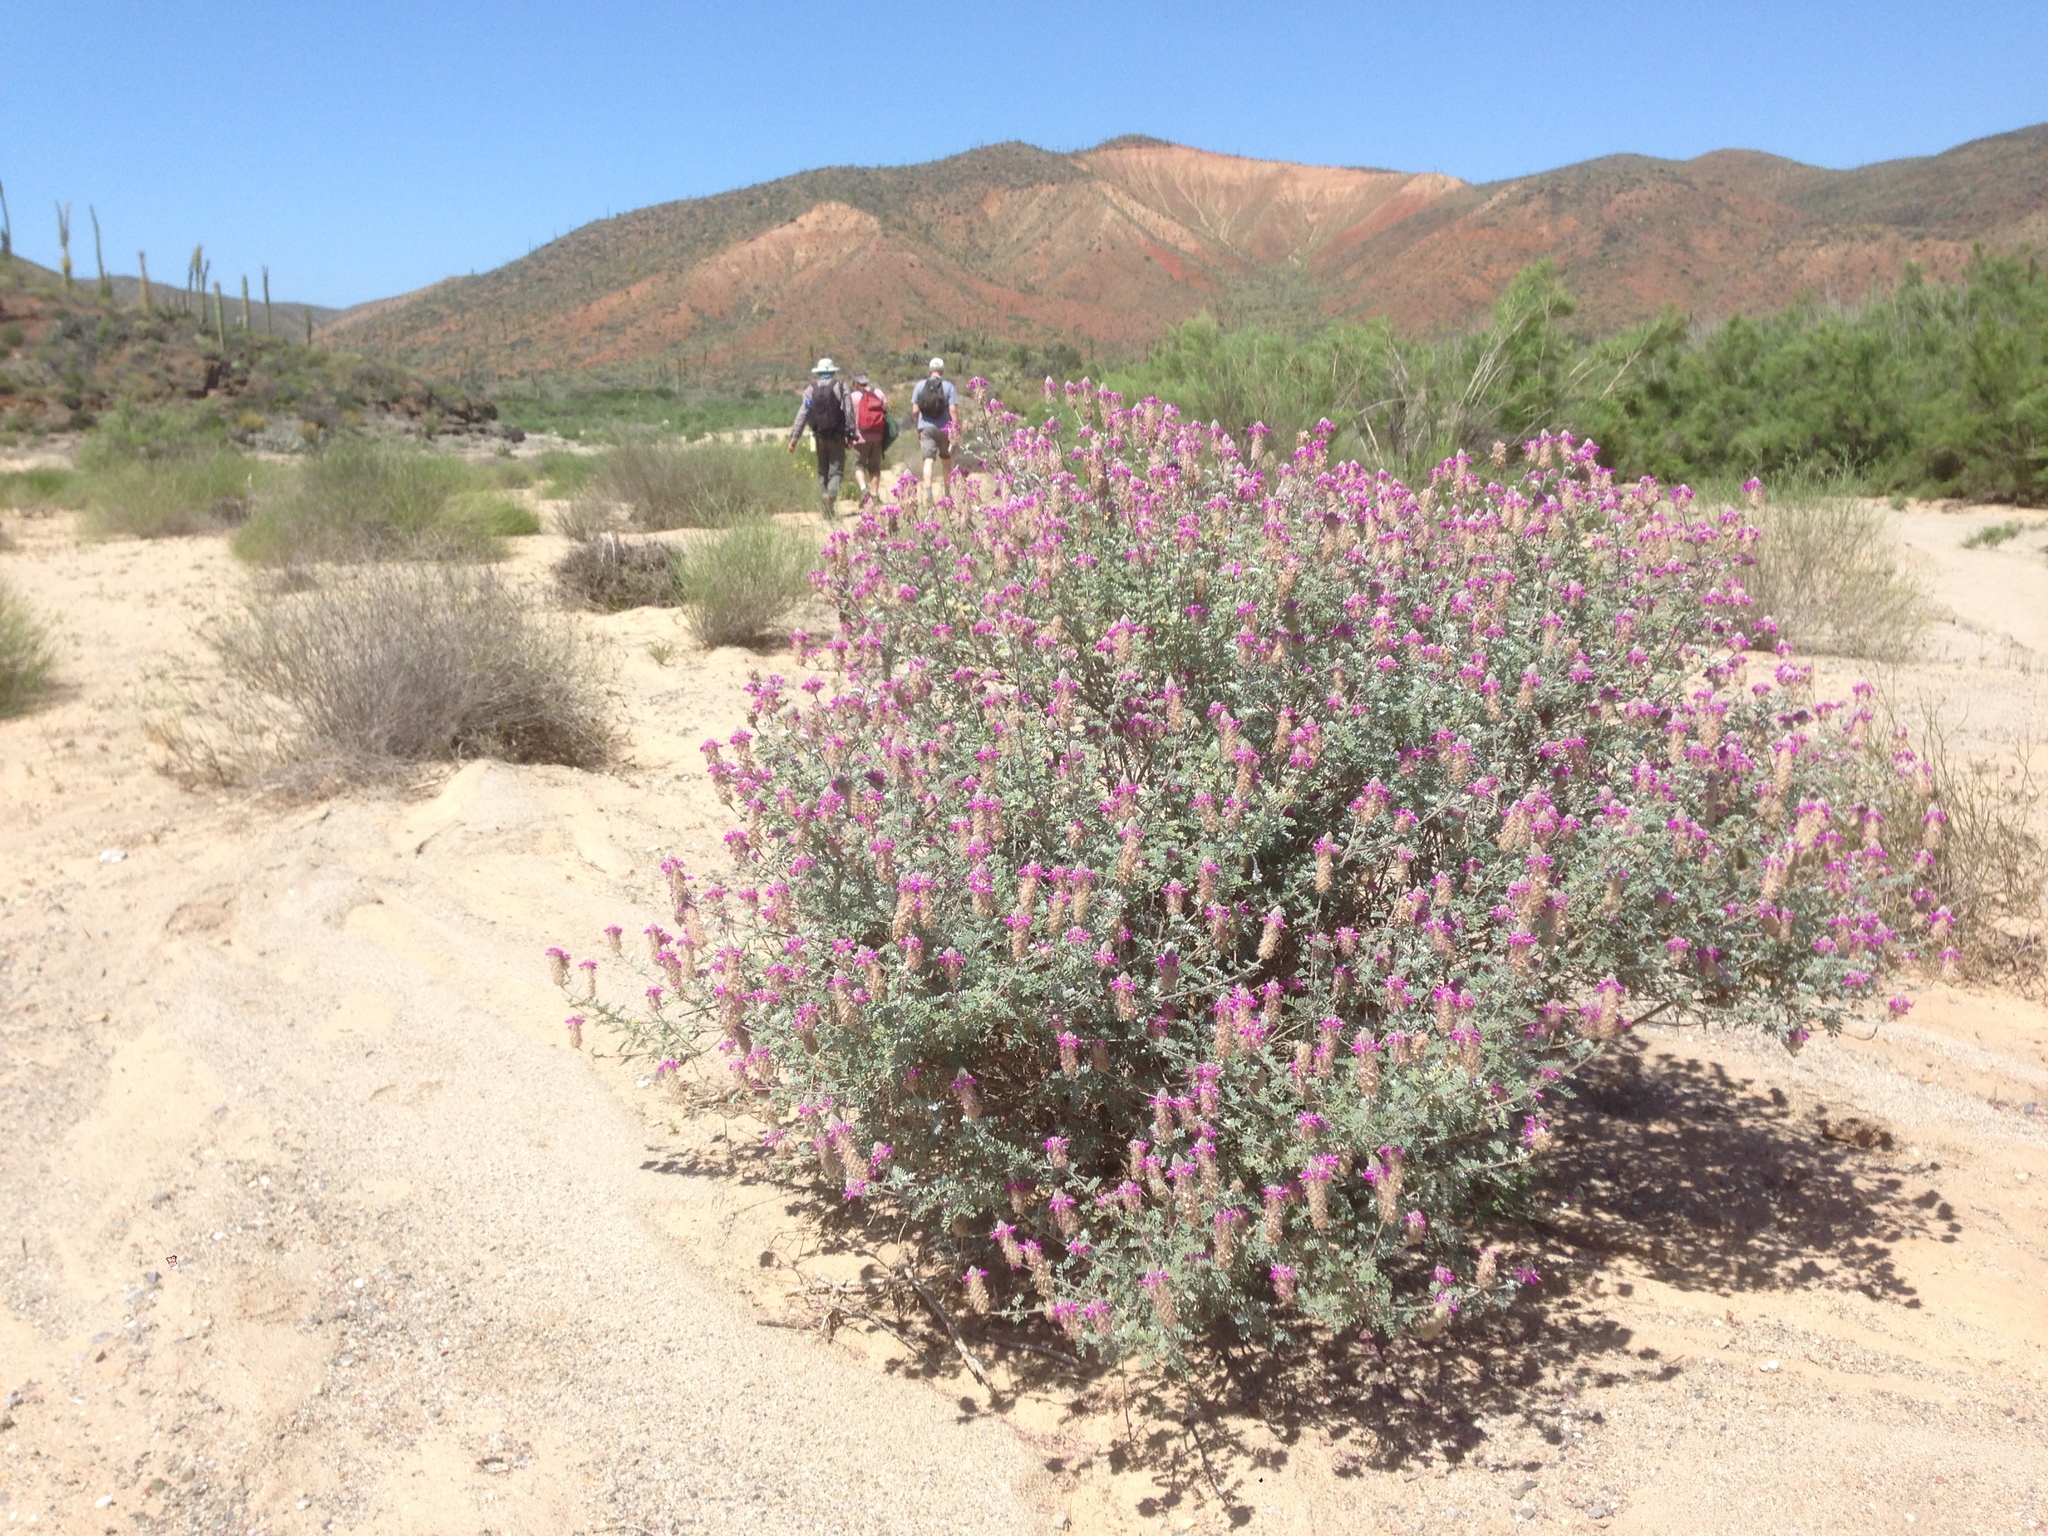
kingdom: Plantae
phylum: Tracheophyta
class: Magnoliopsida
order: Fabales
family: Fabaceae
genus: Dalea
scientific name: Dalea bicolor
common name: Silver prairie-clover
